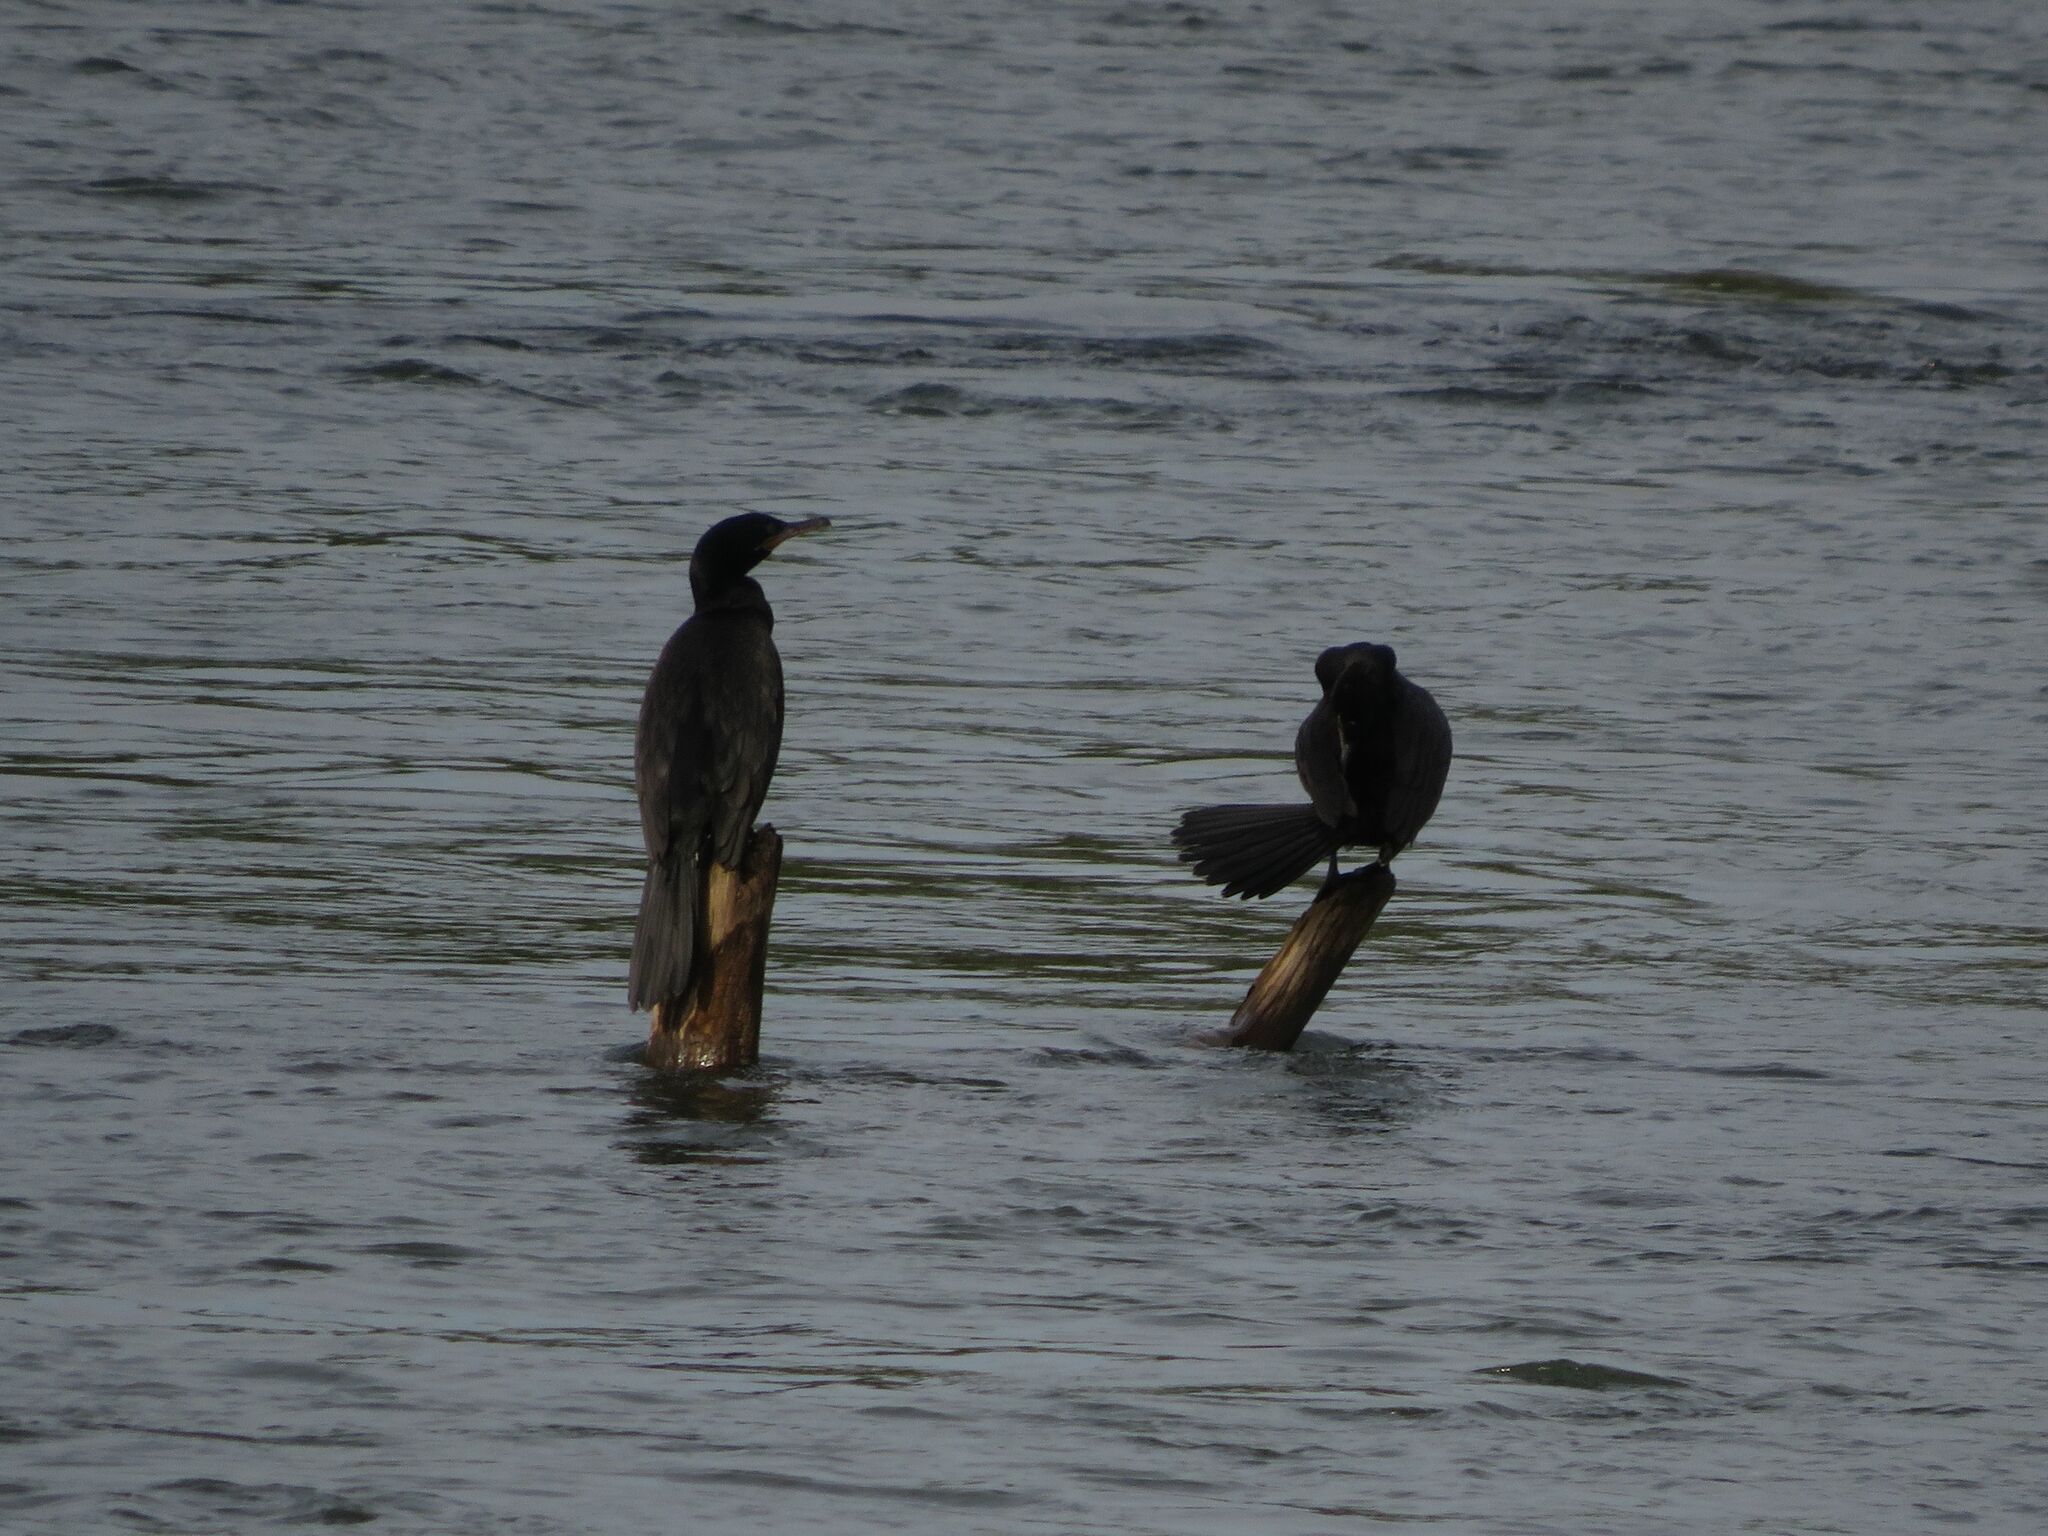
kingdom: Animalia
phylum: Chordata
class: Aves
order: Suliformes
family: Phalacrocoracidae
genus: Phalacrocorax
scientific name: Phalacrocorax brasilianus
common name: Neotropic cormorant
